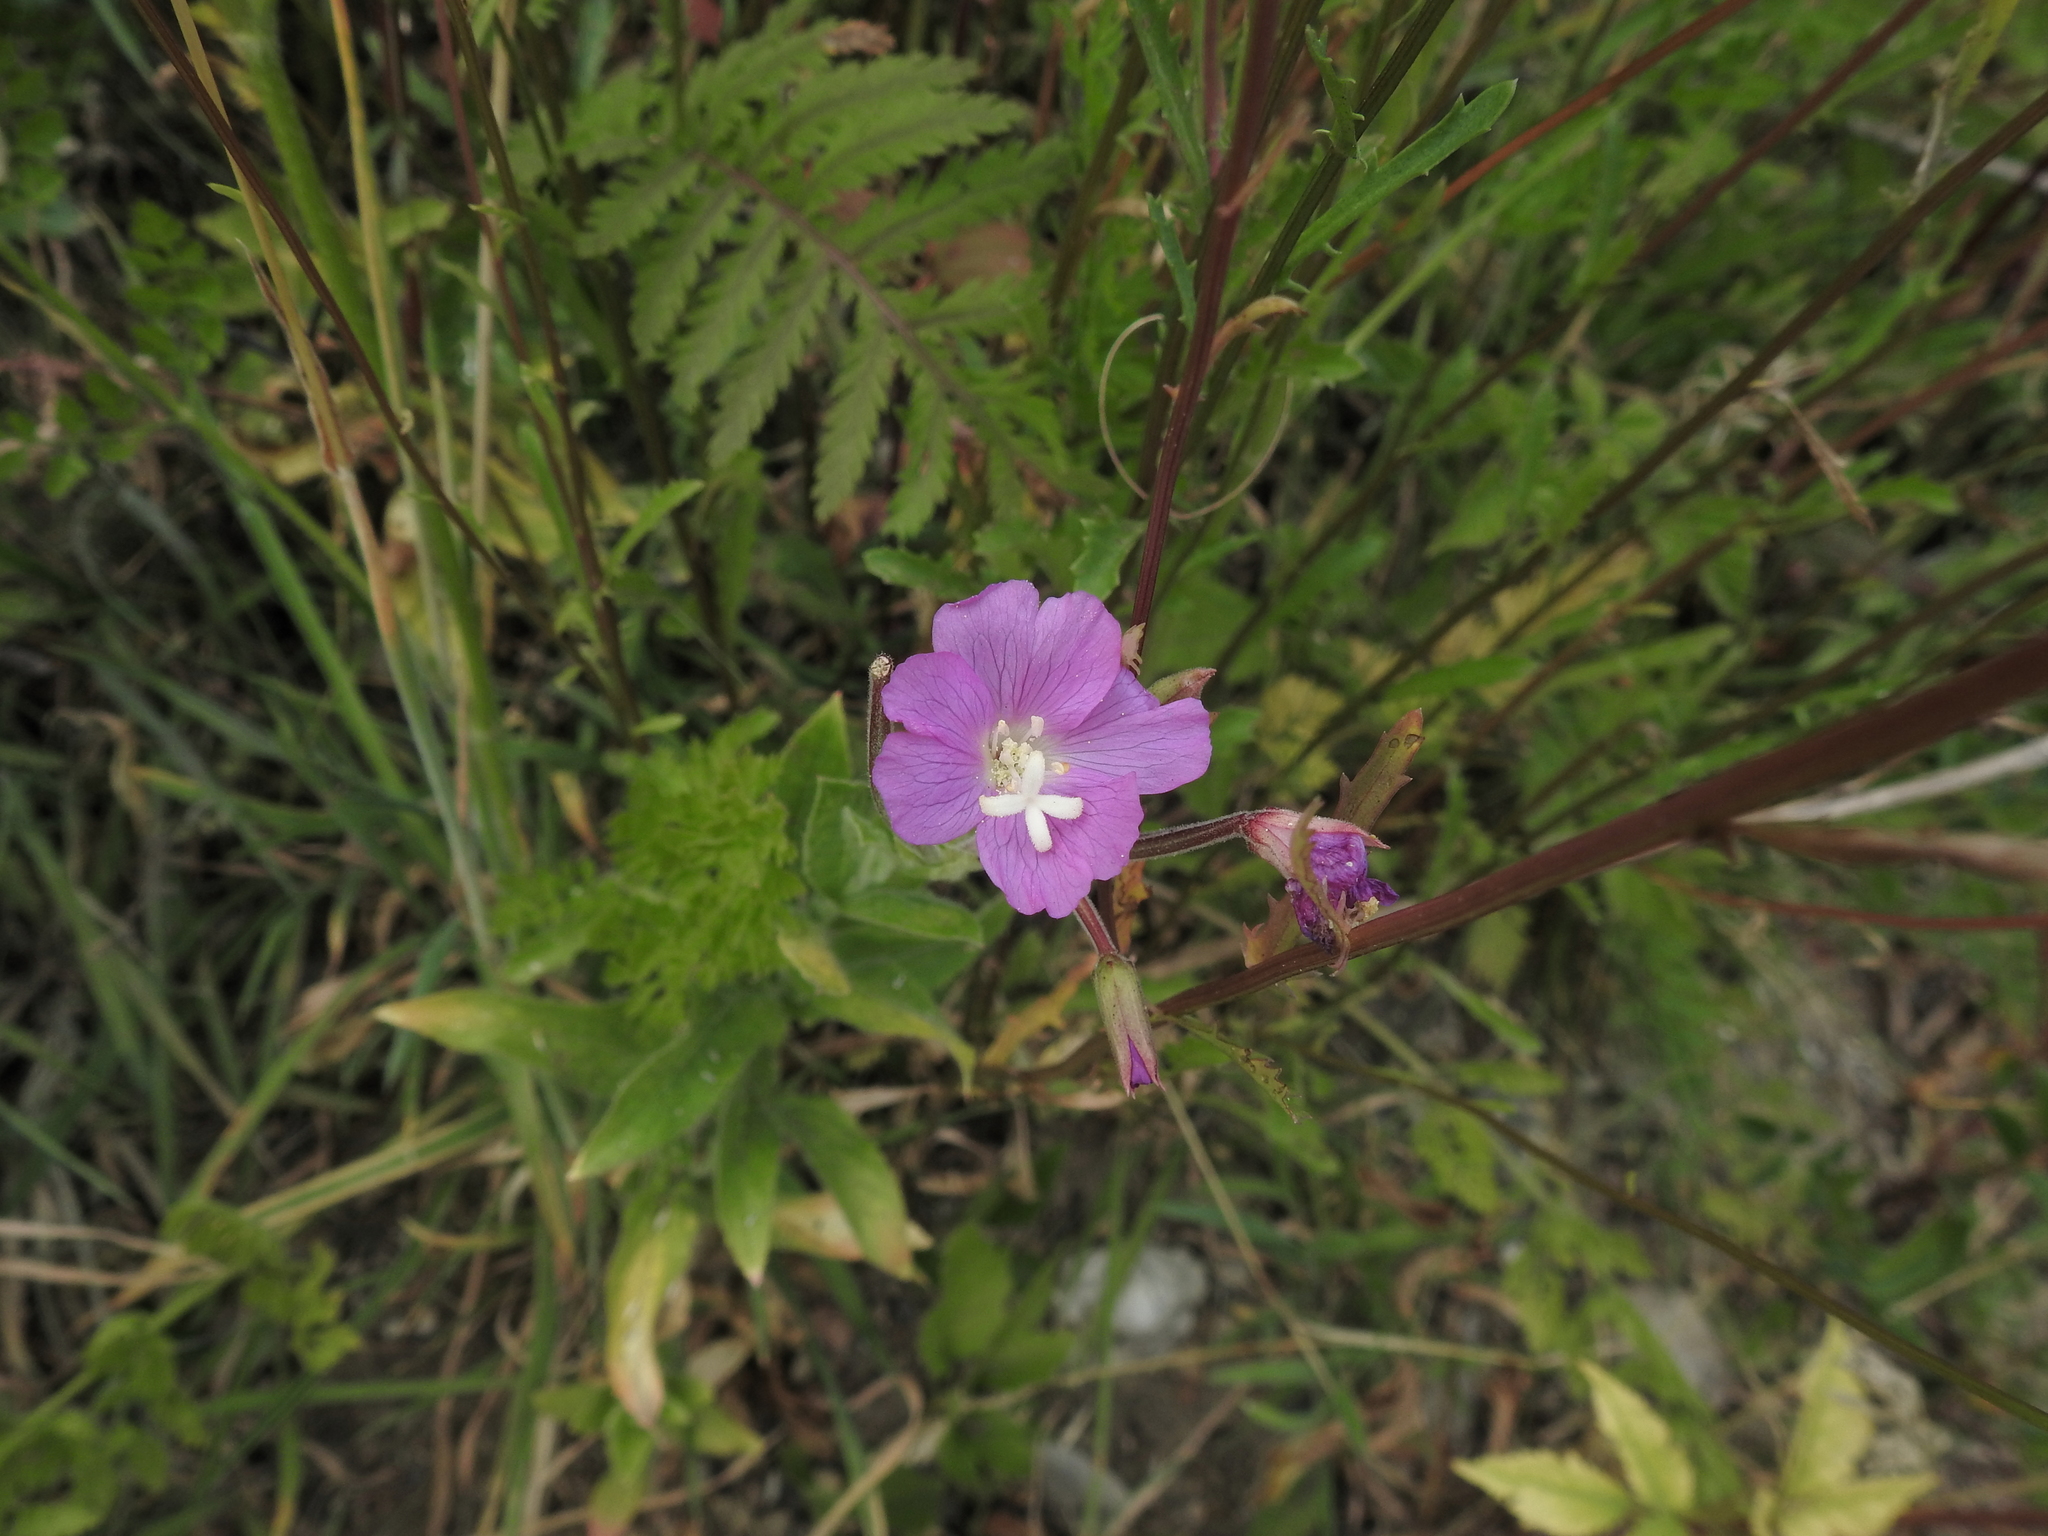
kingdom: Plantae
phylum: Tracheophyta
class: Magnoliopsida
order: Myrtales
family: Onagraceae
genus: Epilobium
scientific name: Epilobium hirsutum
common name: Great willowherb
